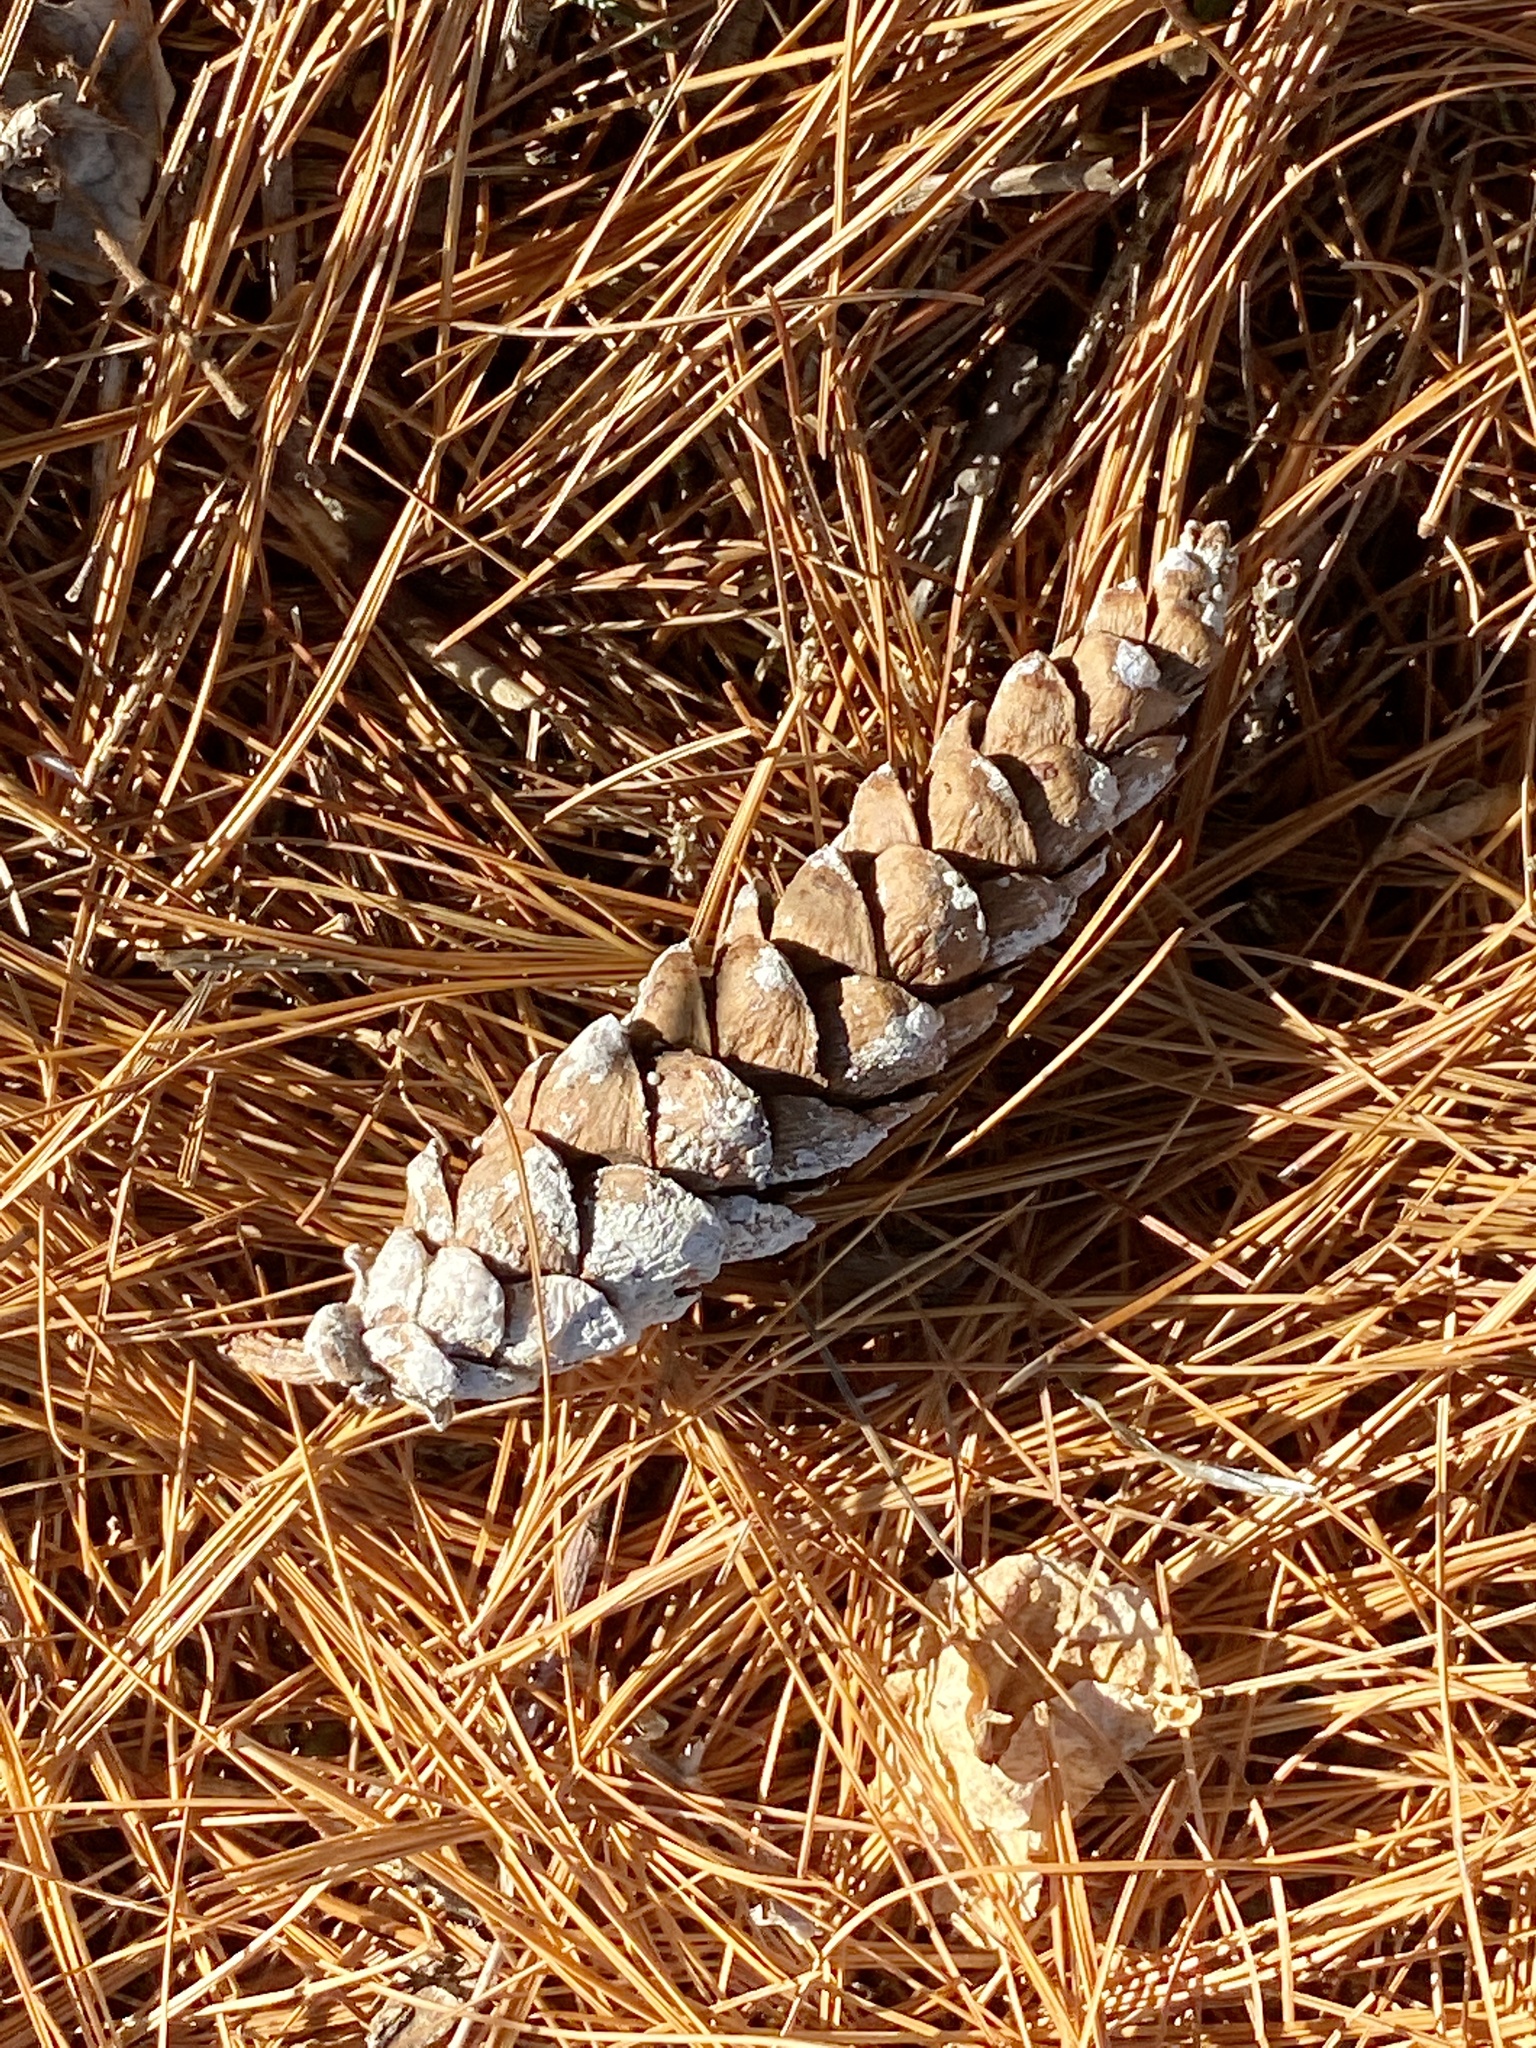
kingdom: Plantae
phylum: Tracheophyta
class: Pinopsida
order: Pinales
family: Pinaceae
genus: Pinus
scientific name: Pinus strobus
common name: Weymouth pine
